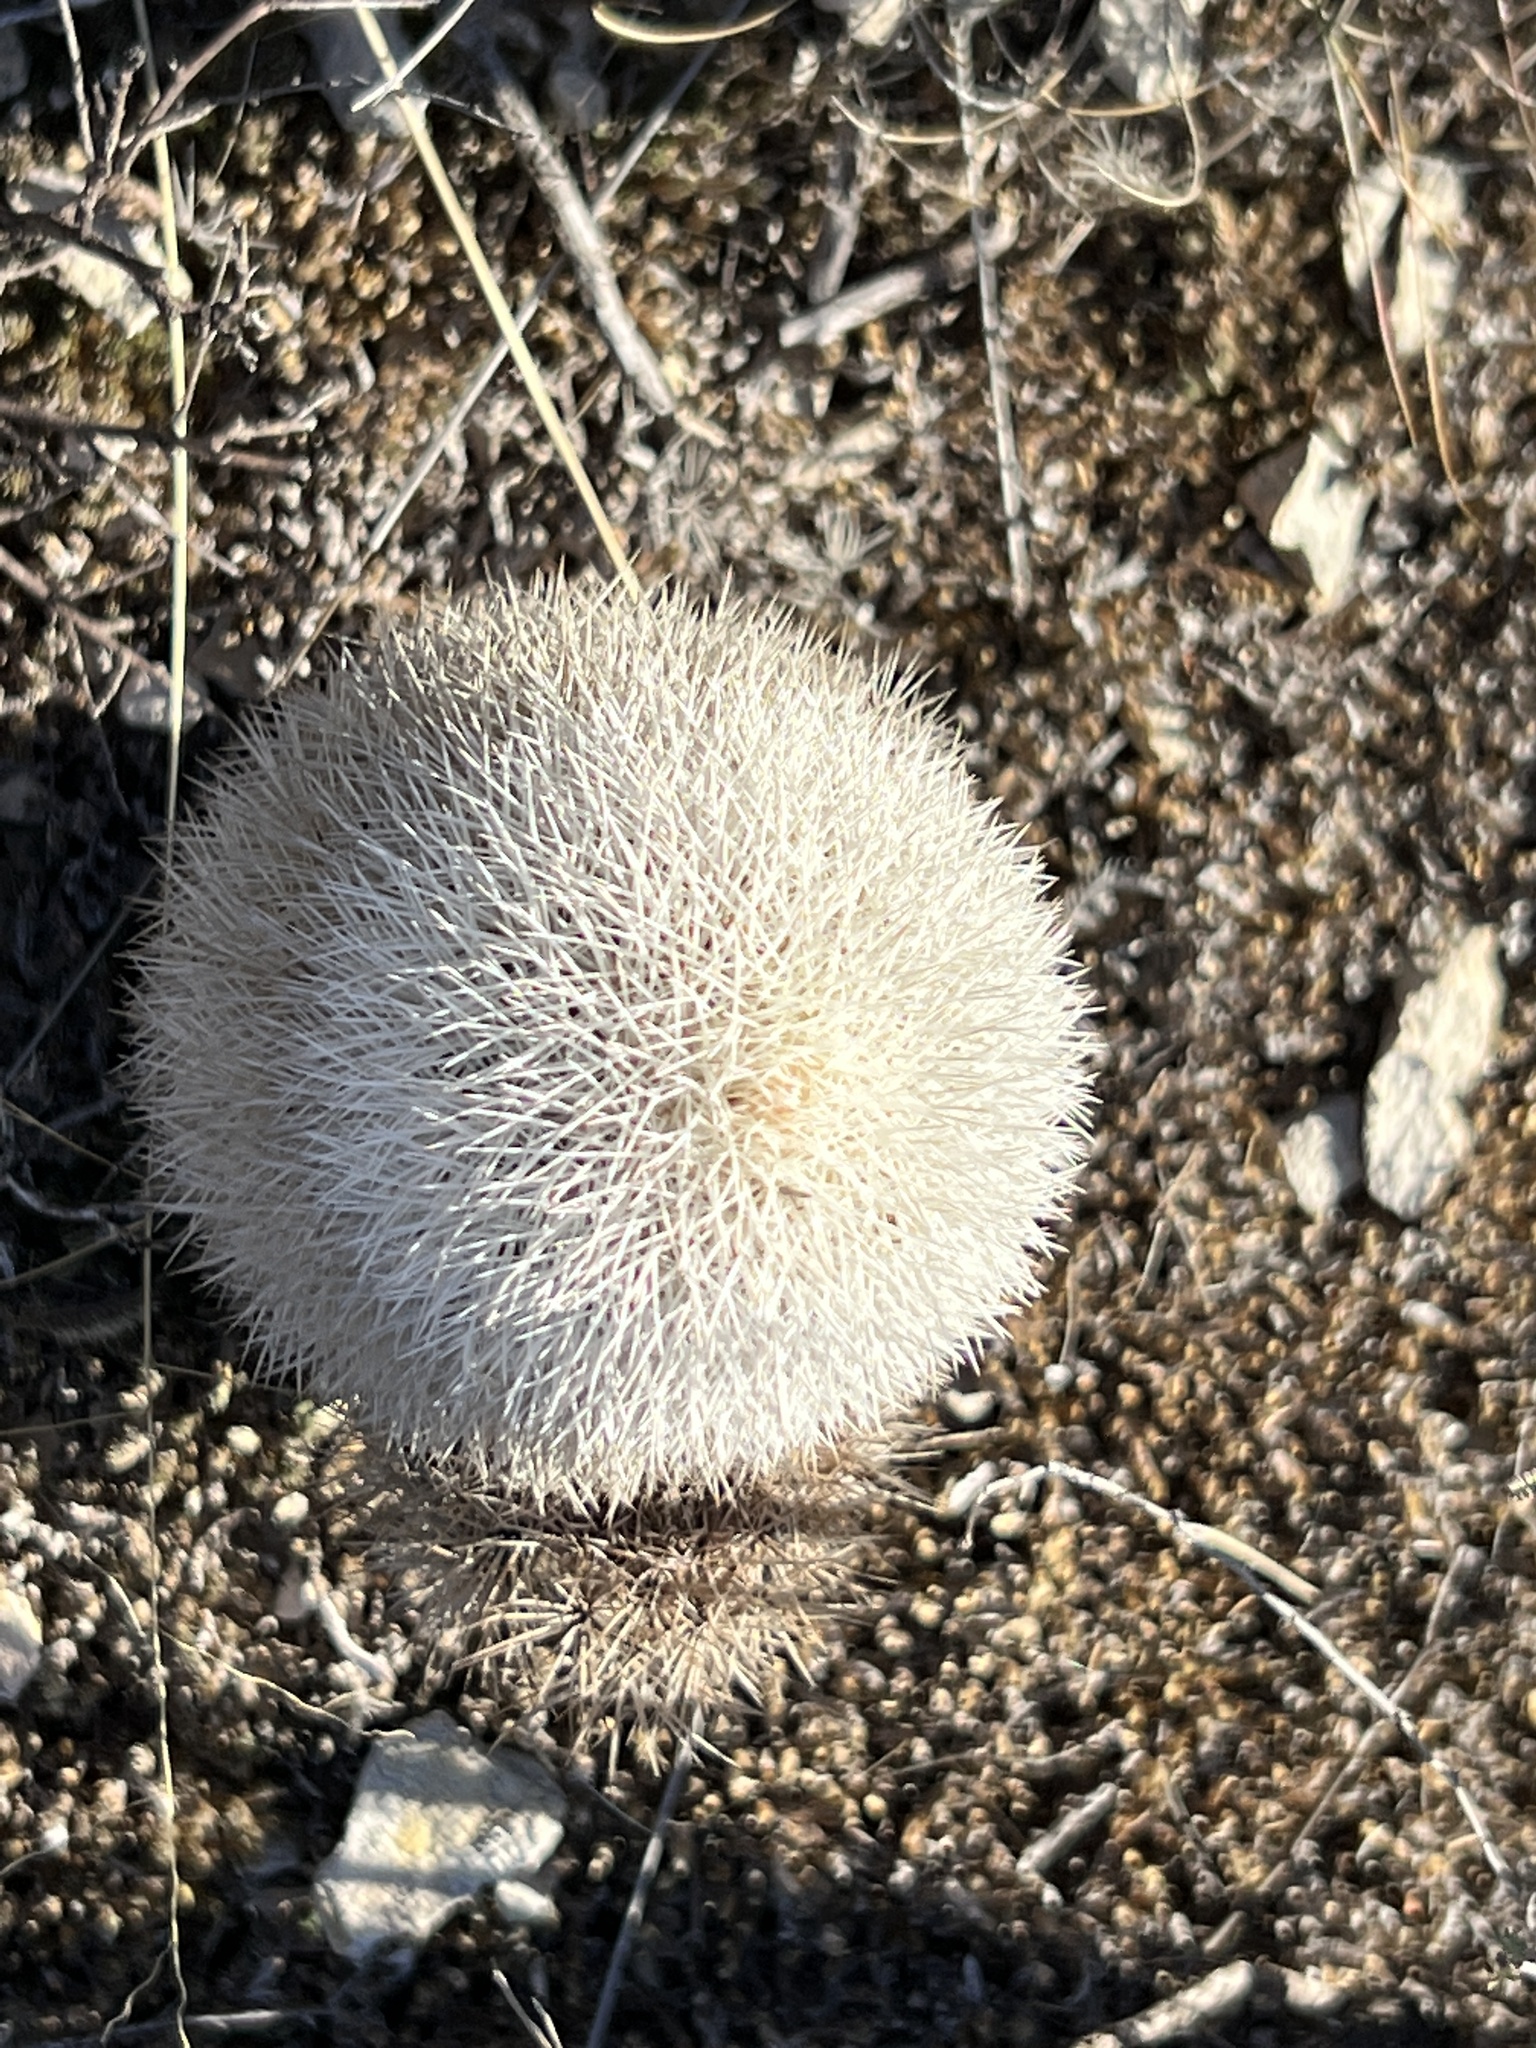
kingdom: Plantae
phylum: Tracheophyta
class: Magnoliopsida
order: Caryophyllales
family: Cactaceae
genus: Echinocereus
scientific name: Echinocereus dasyacanthus
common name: Spiny hedgehog cactus
